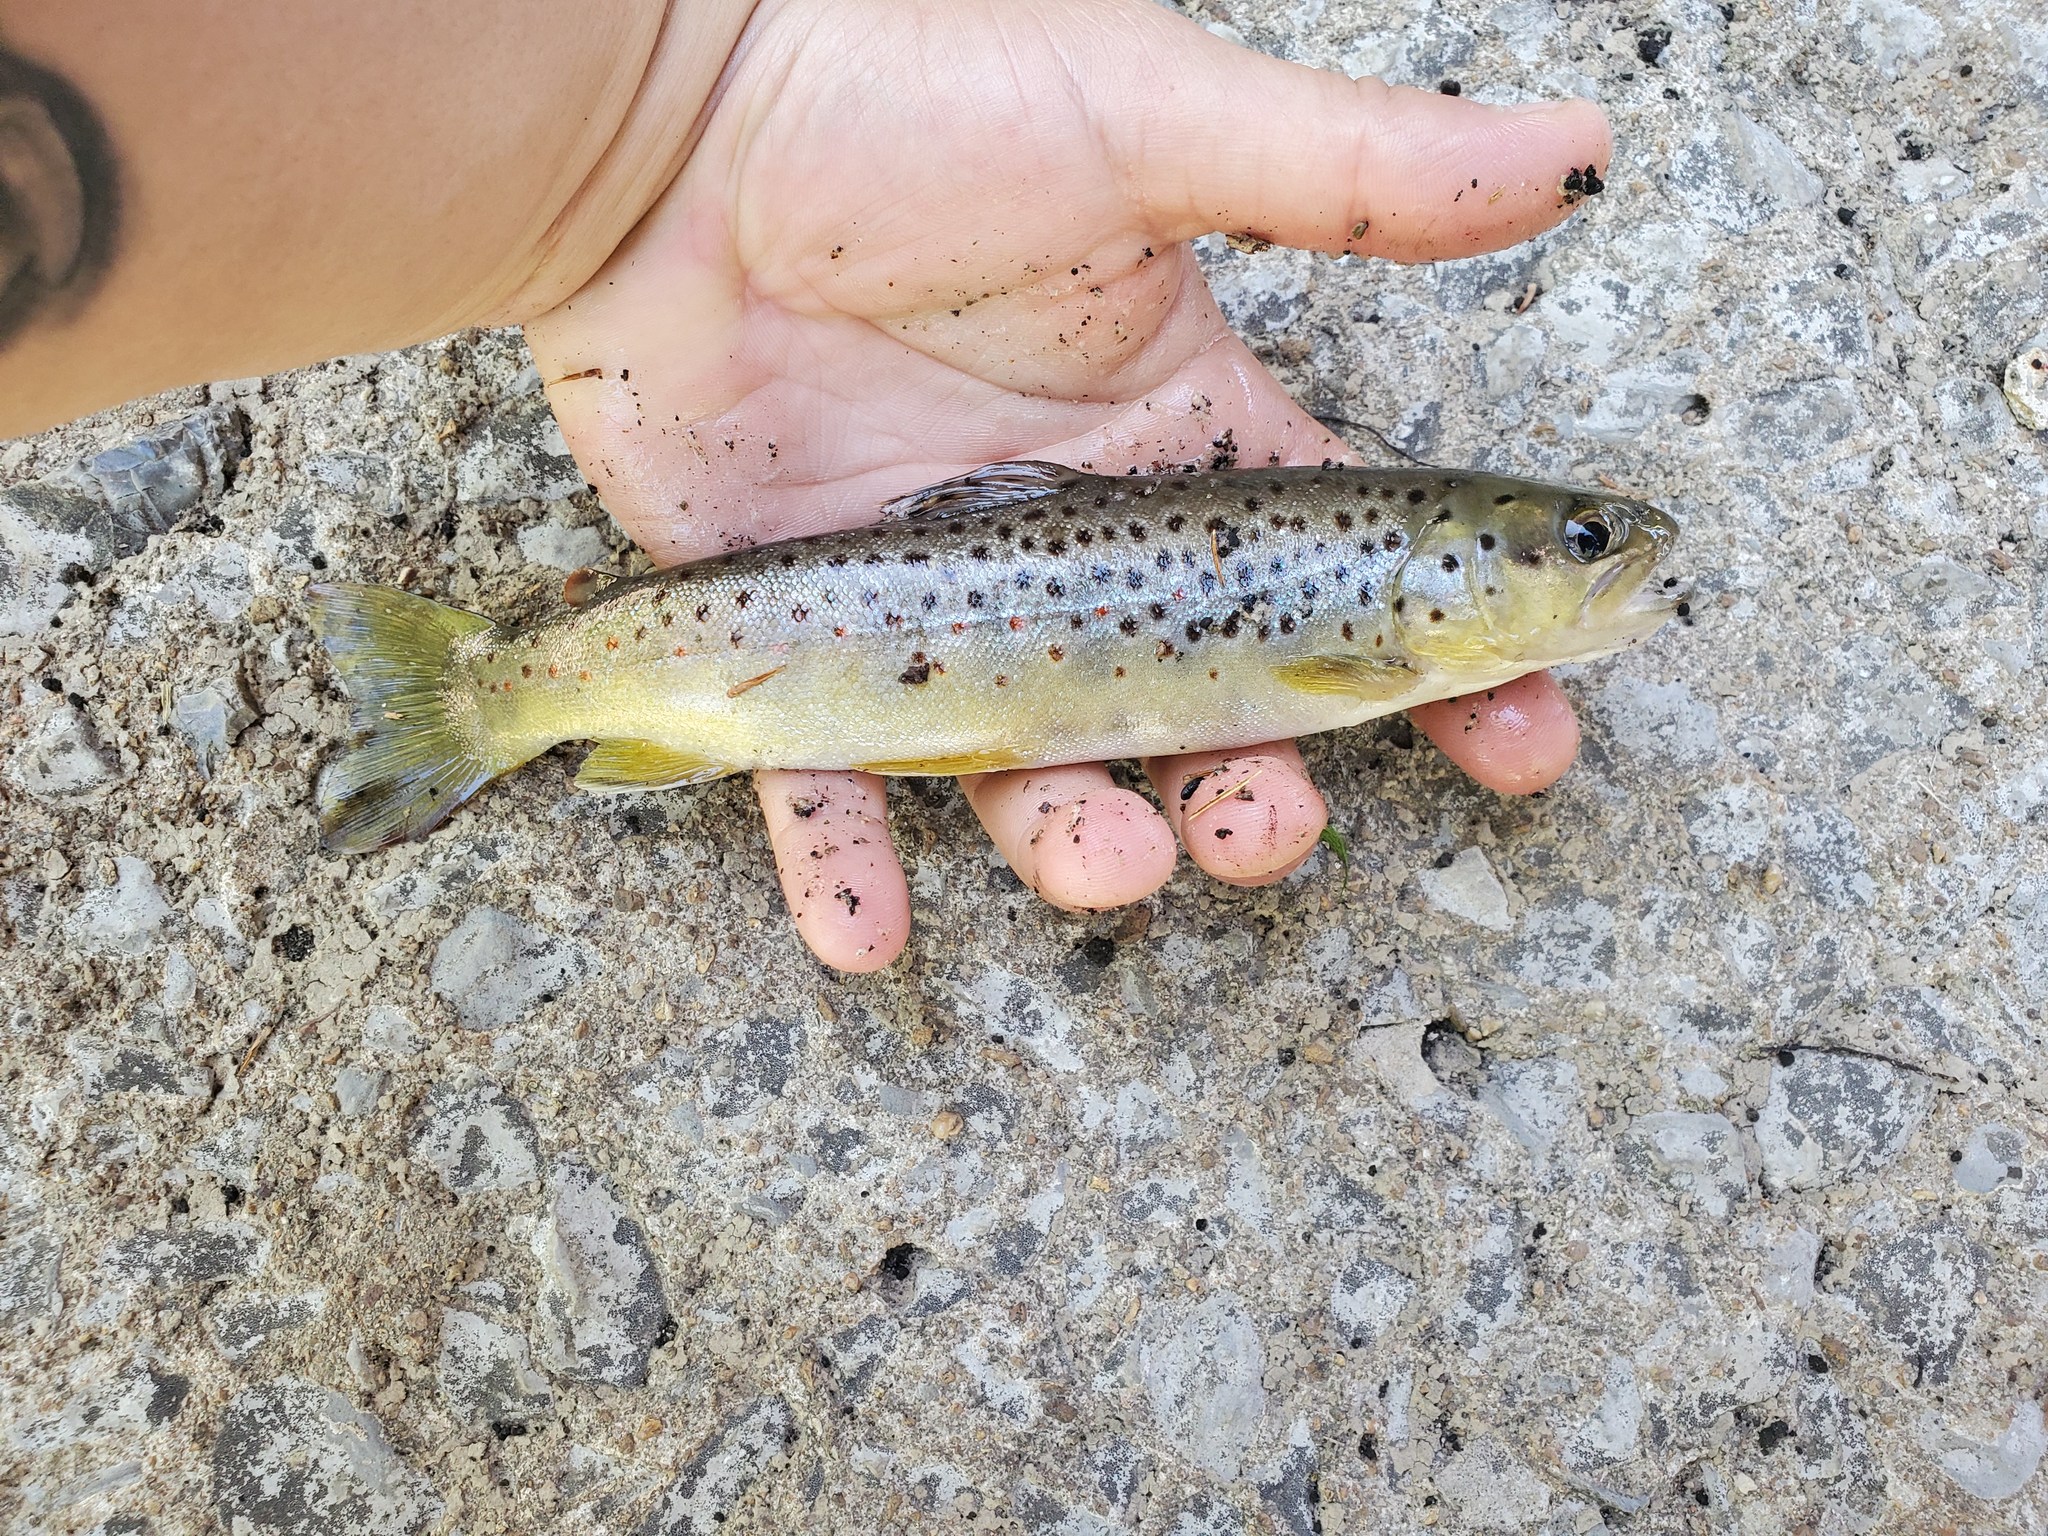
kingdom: Animalia
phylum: Chordata
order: Salmoniformes
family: Salmonidae
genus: Salmo
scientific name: Salmo trutta
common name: Brown trout
